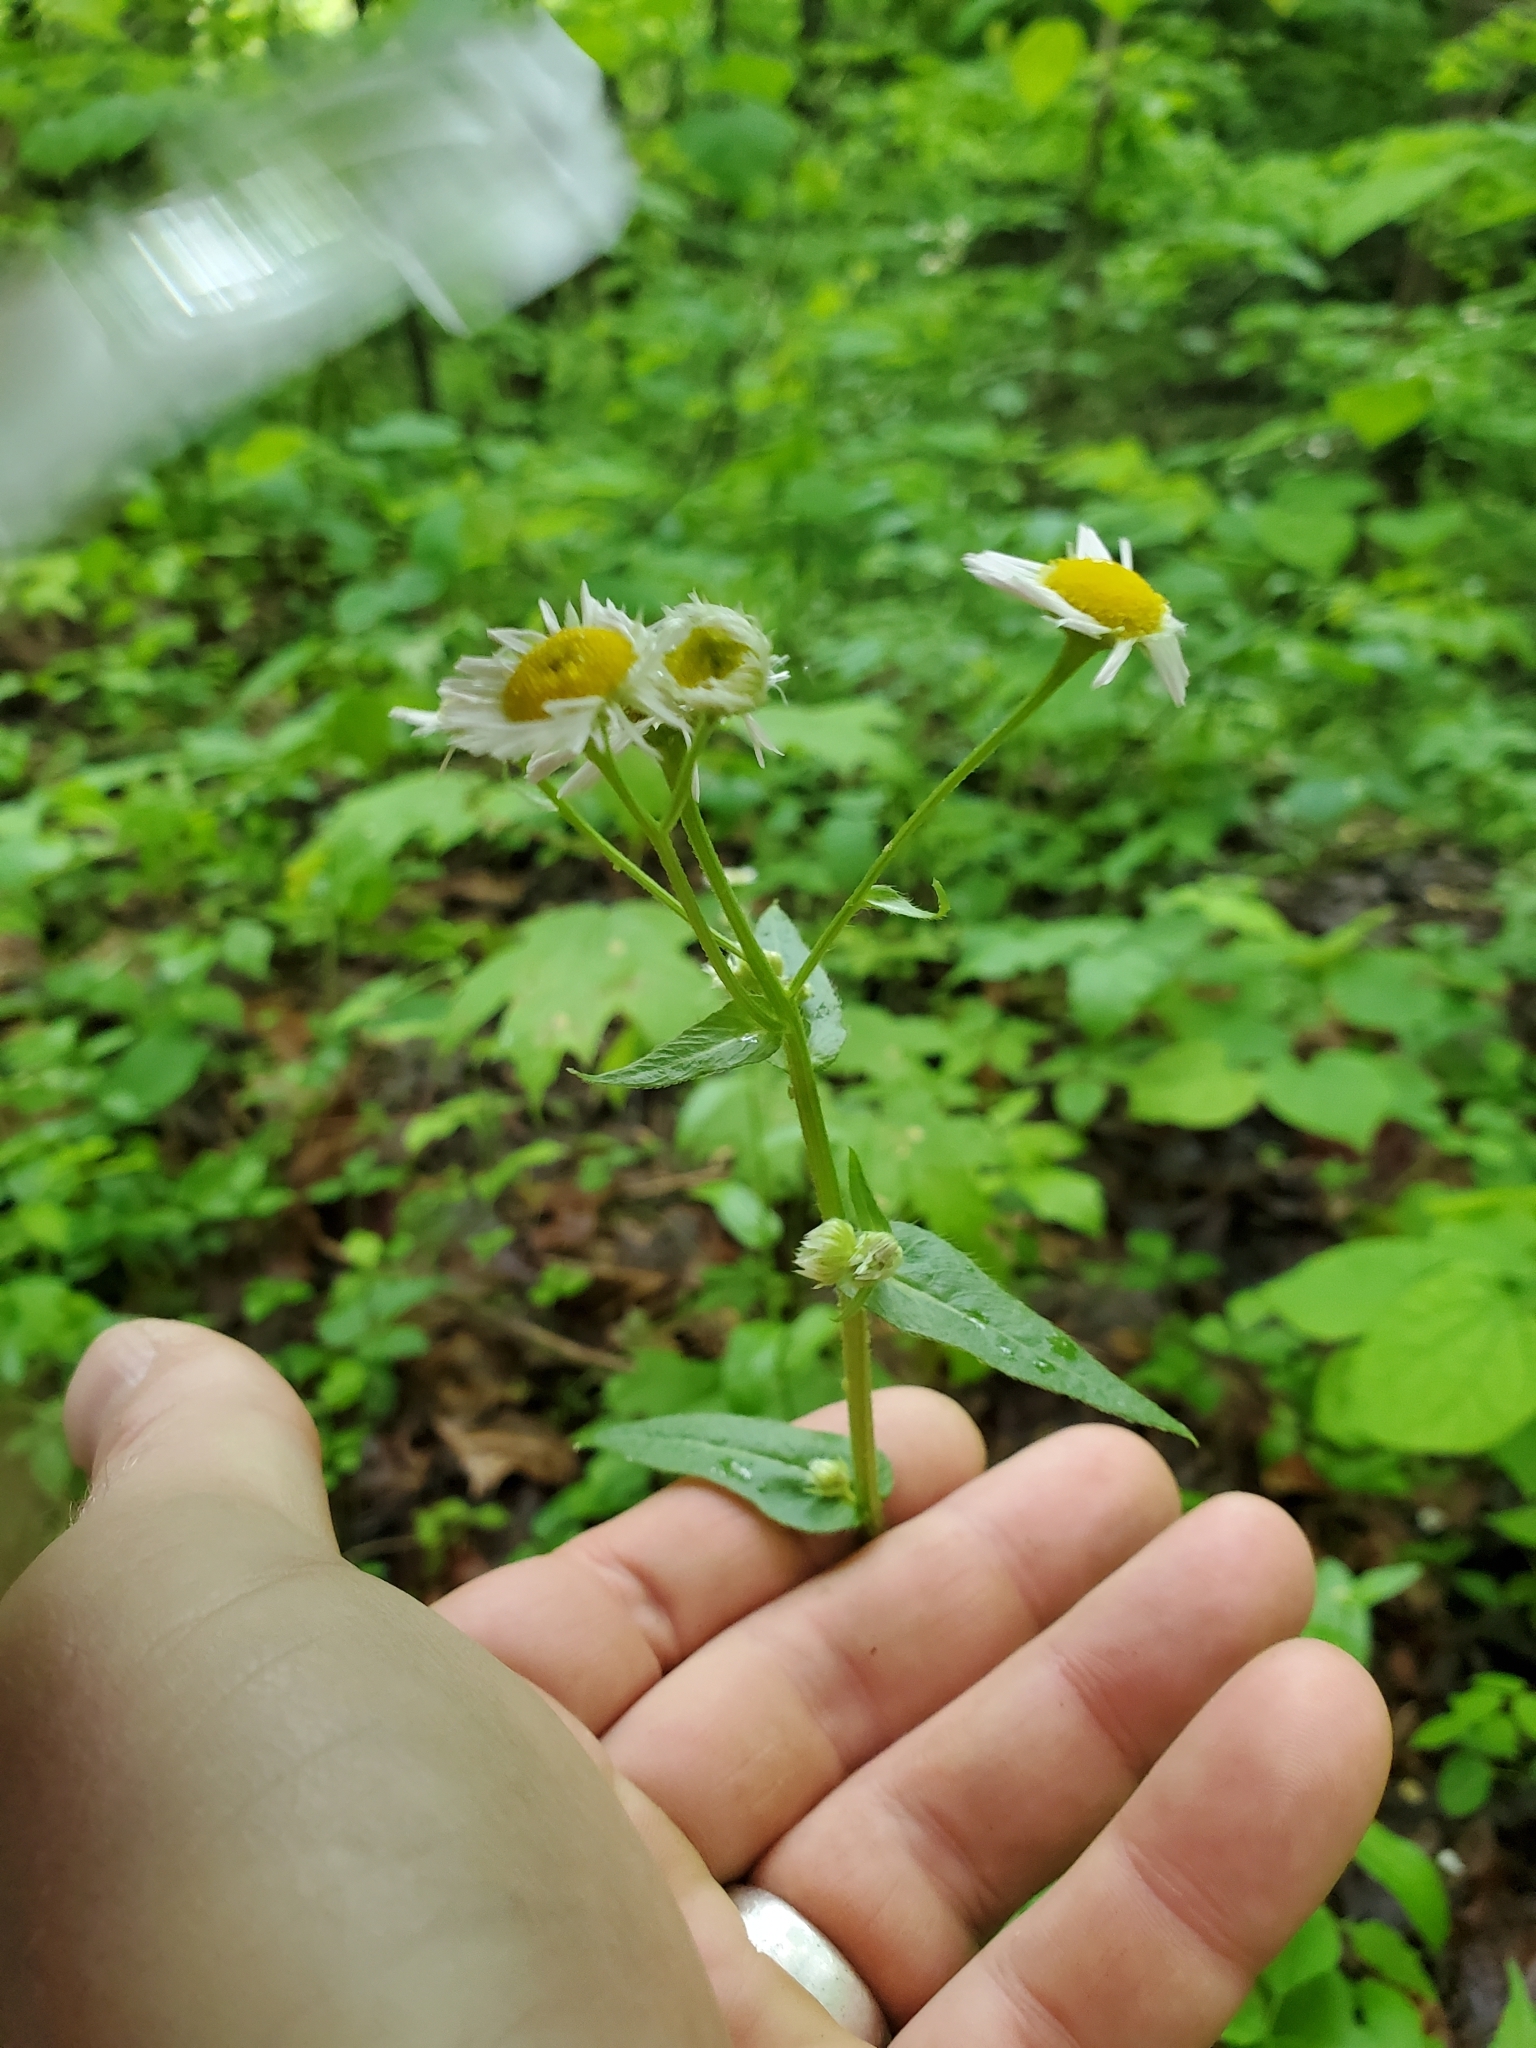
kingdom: Plantae
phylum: Tracheophyta
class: Magnoliopsida
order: Asterales
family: Asteraceae
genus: Erigeron
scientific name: Erigeron philadelphicus
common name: Robin's-plantain
